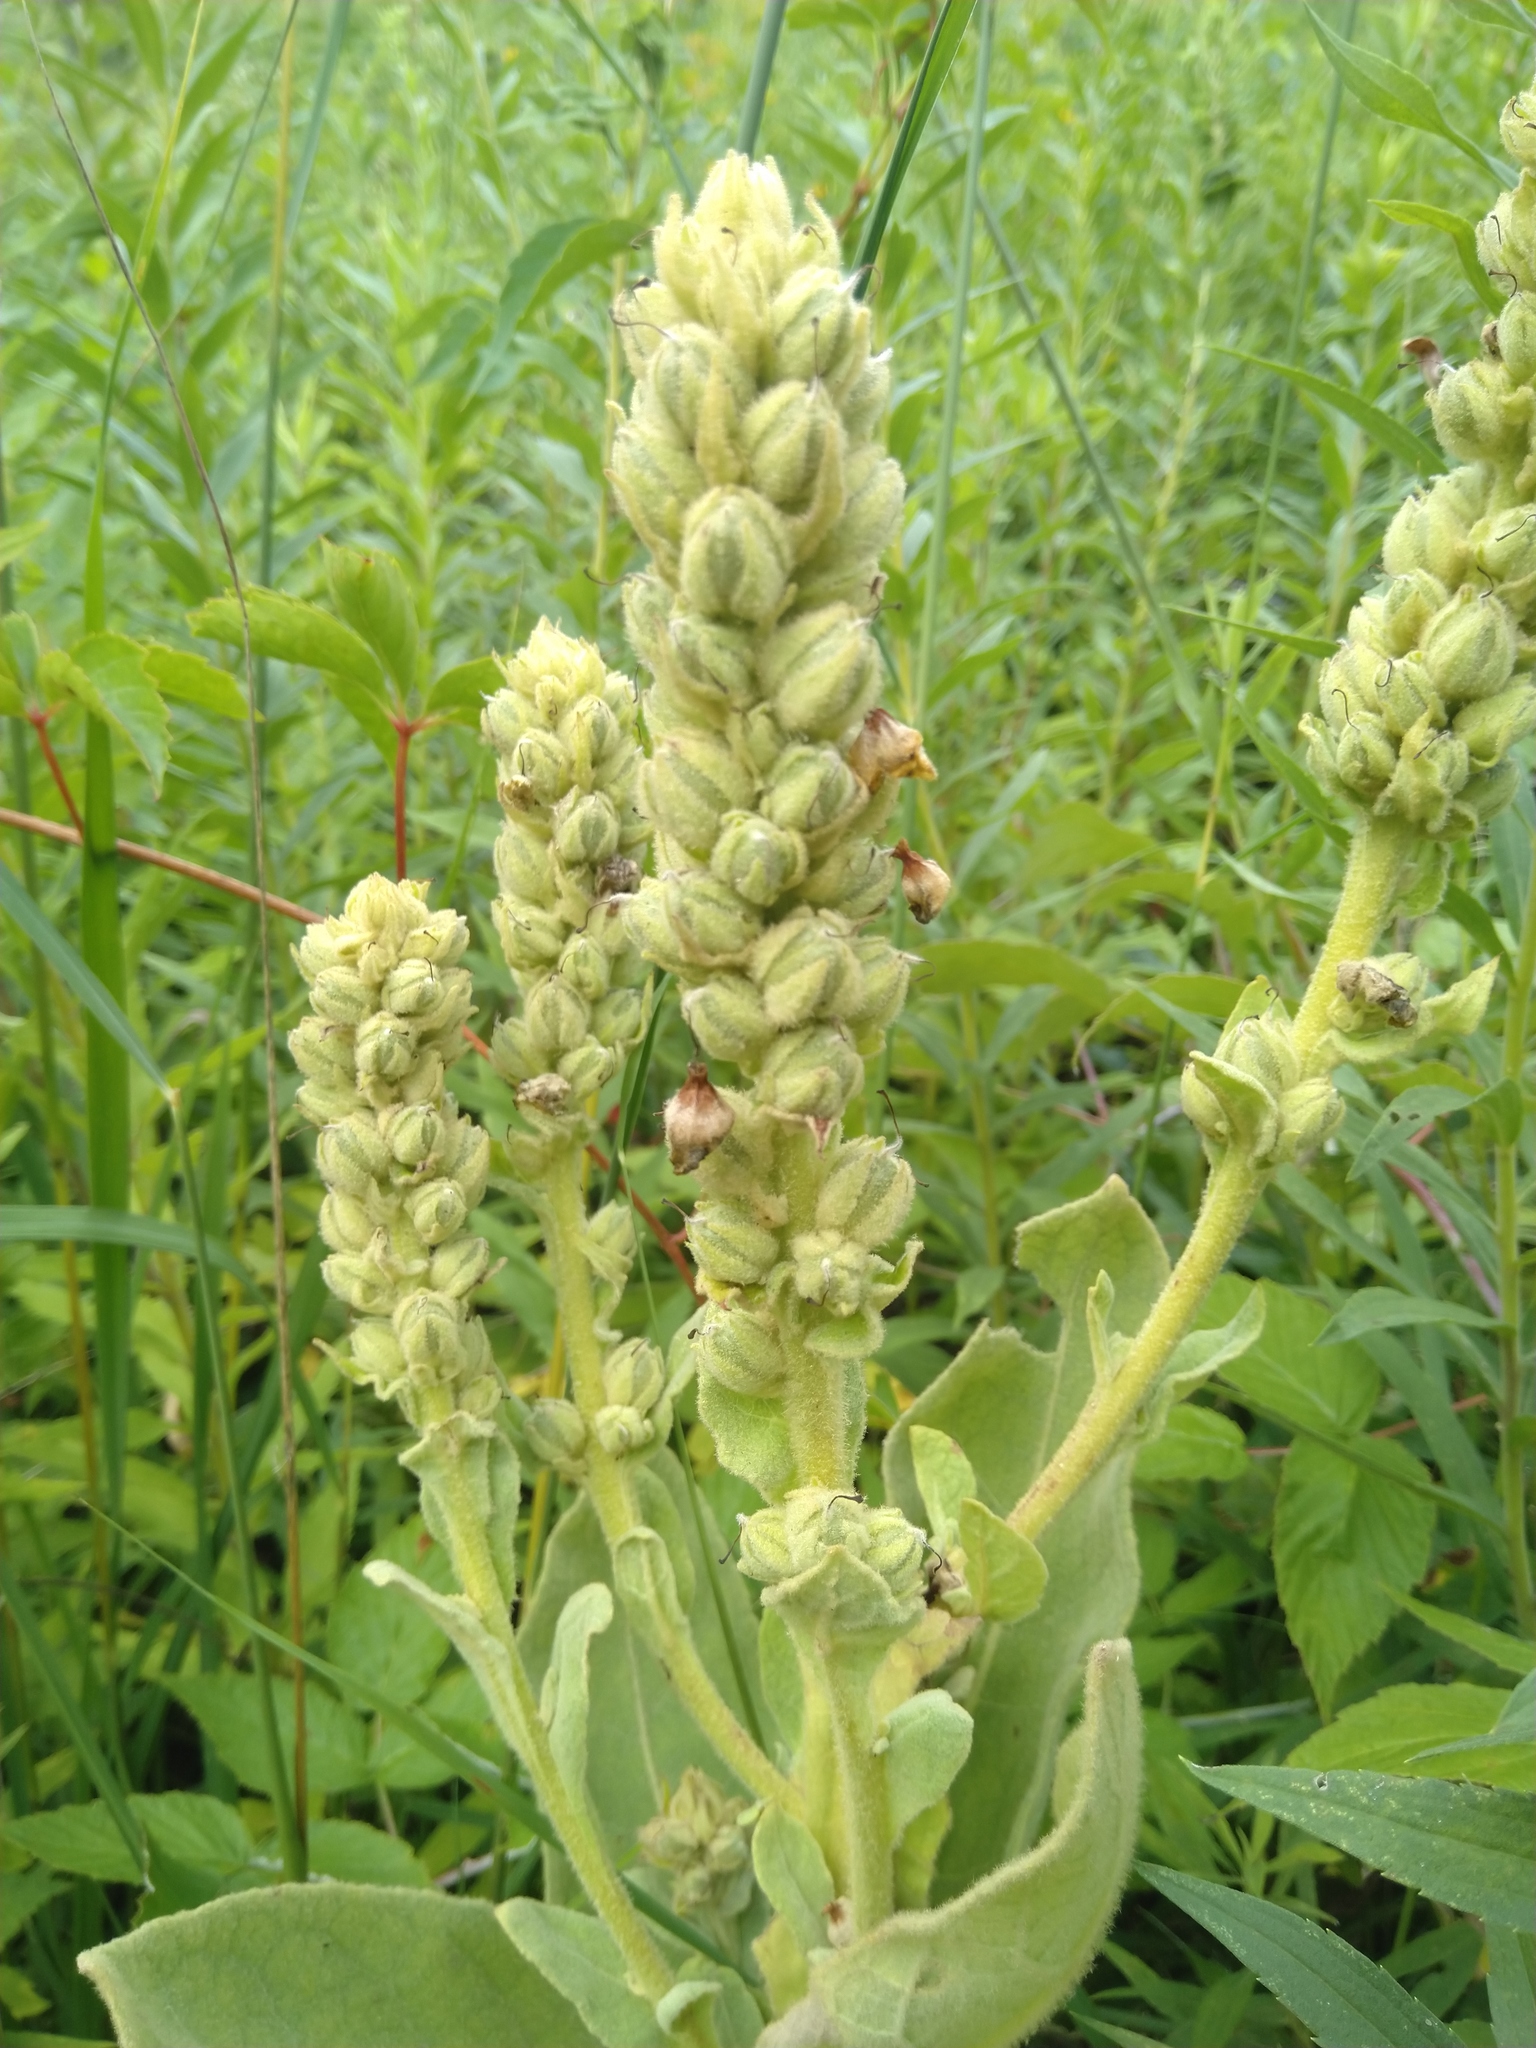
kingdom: Plantae
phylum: Tracheophyta
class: Magnoliopsida
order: Lamiales
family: Scrophulariaceae
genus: Verbascum
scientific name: Verbascum thapsus
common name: Common mullein
